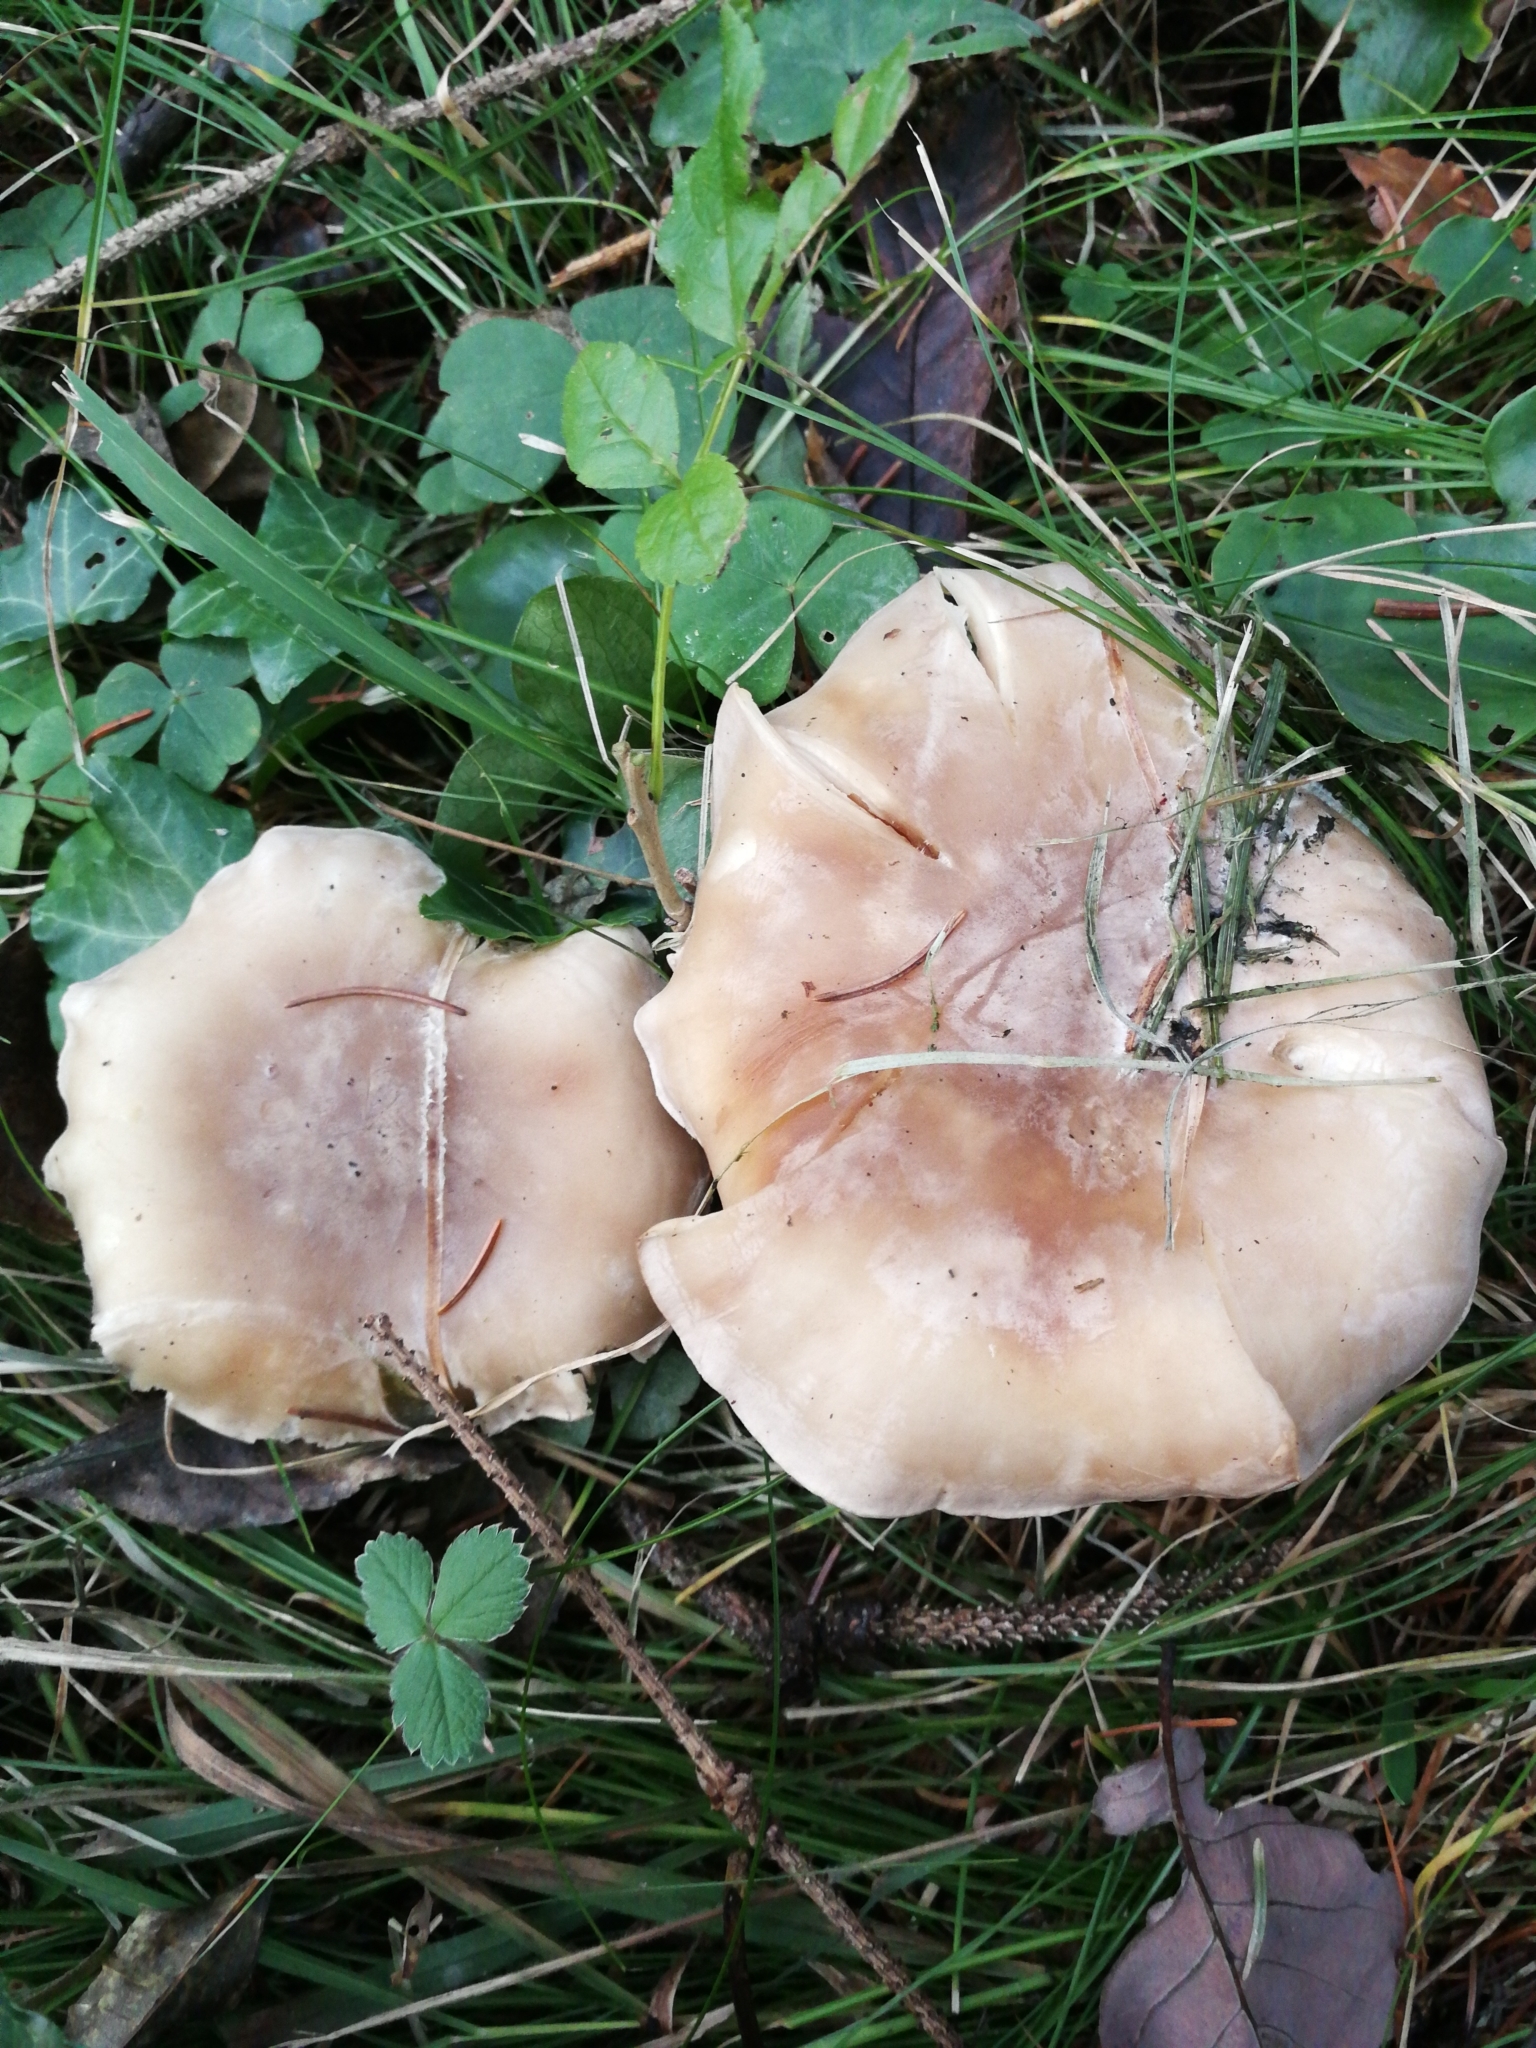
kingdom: Fungi
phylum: Basidiomycota
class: Agaricomycetes
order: Agaricales
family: Tricholomataceae
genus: Clitocybe
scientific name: Clitocybe nebularis
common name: Clouded agaric
